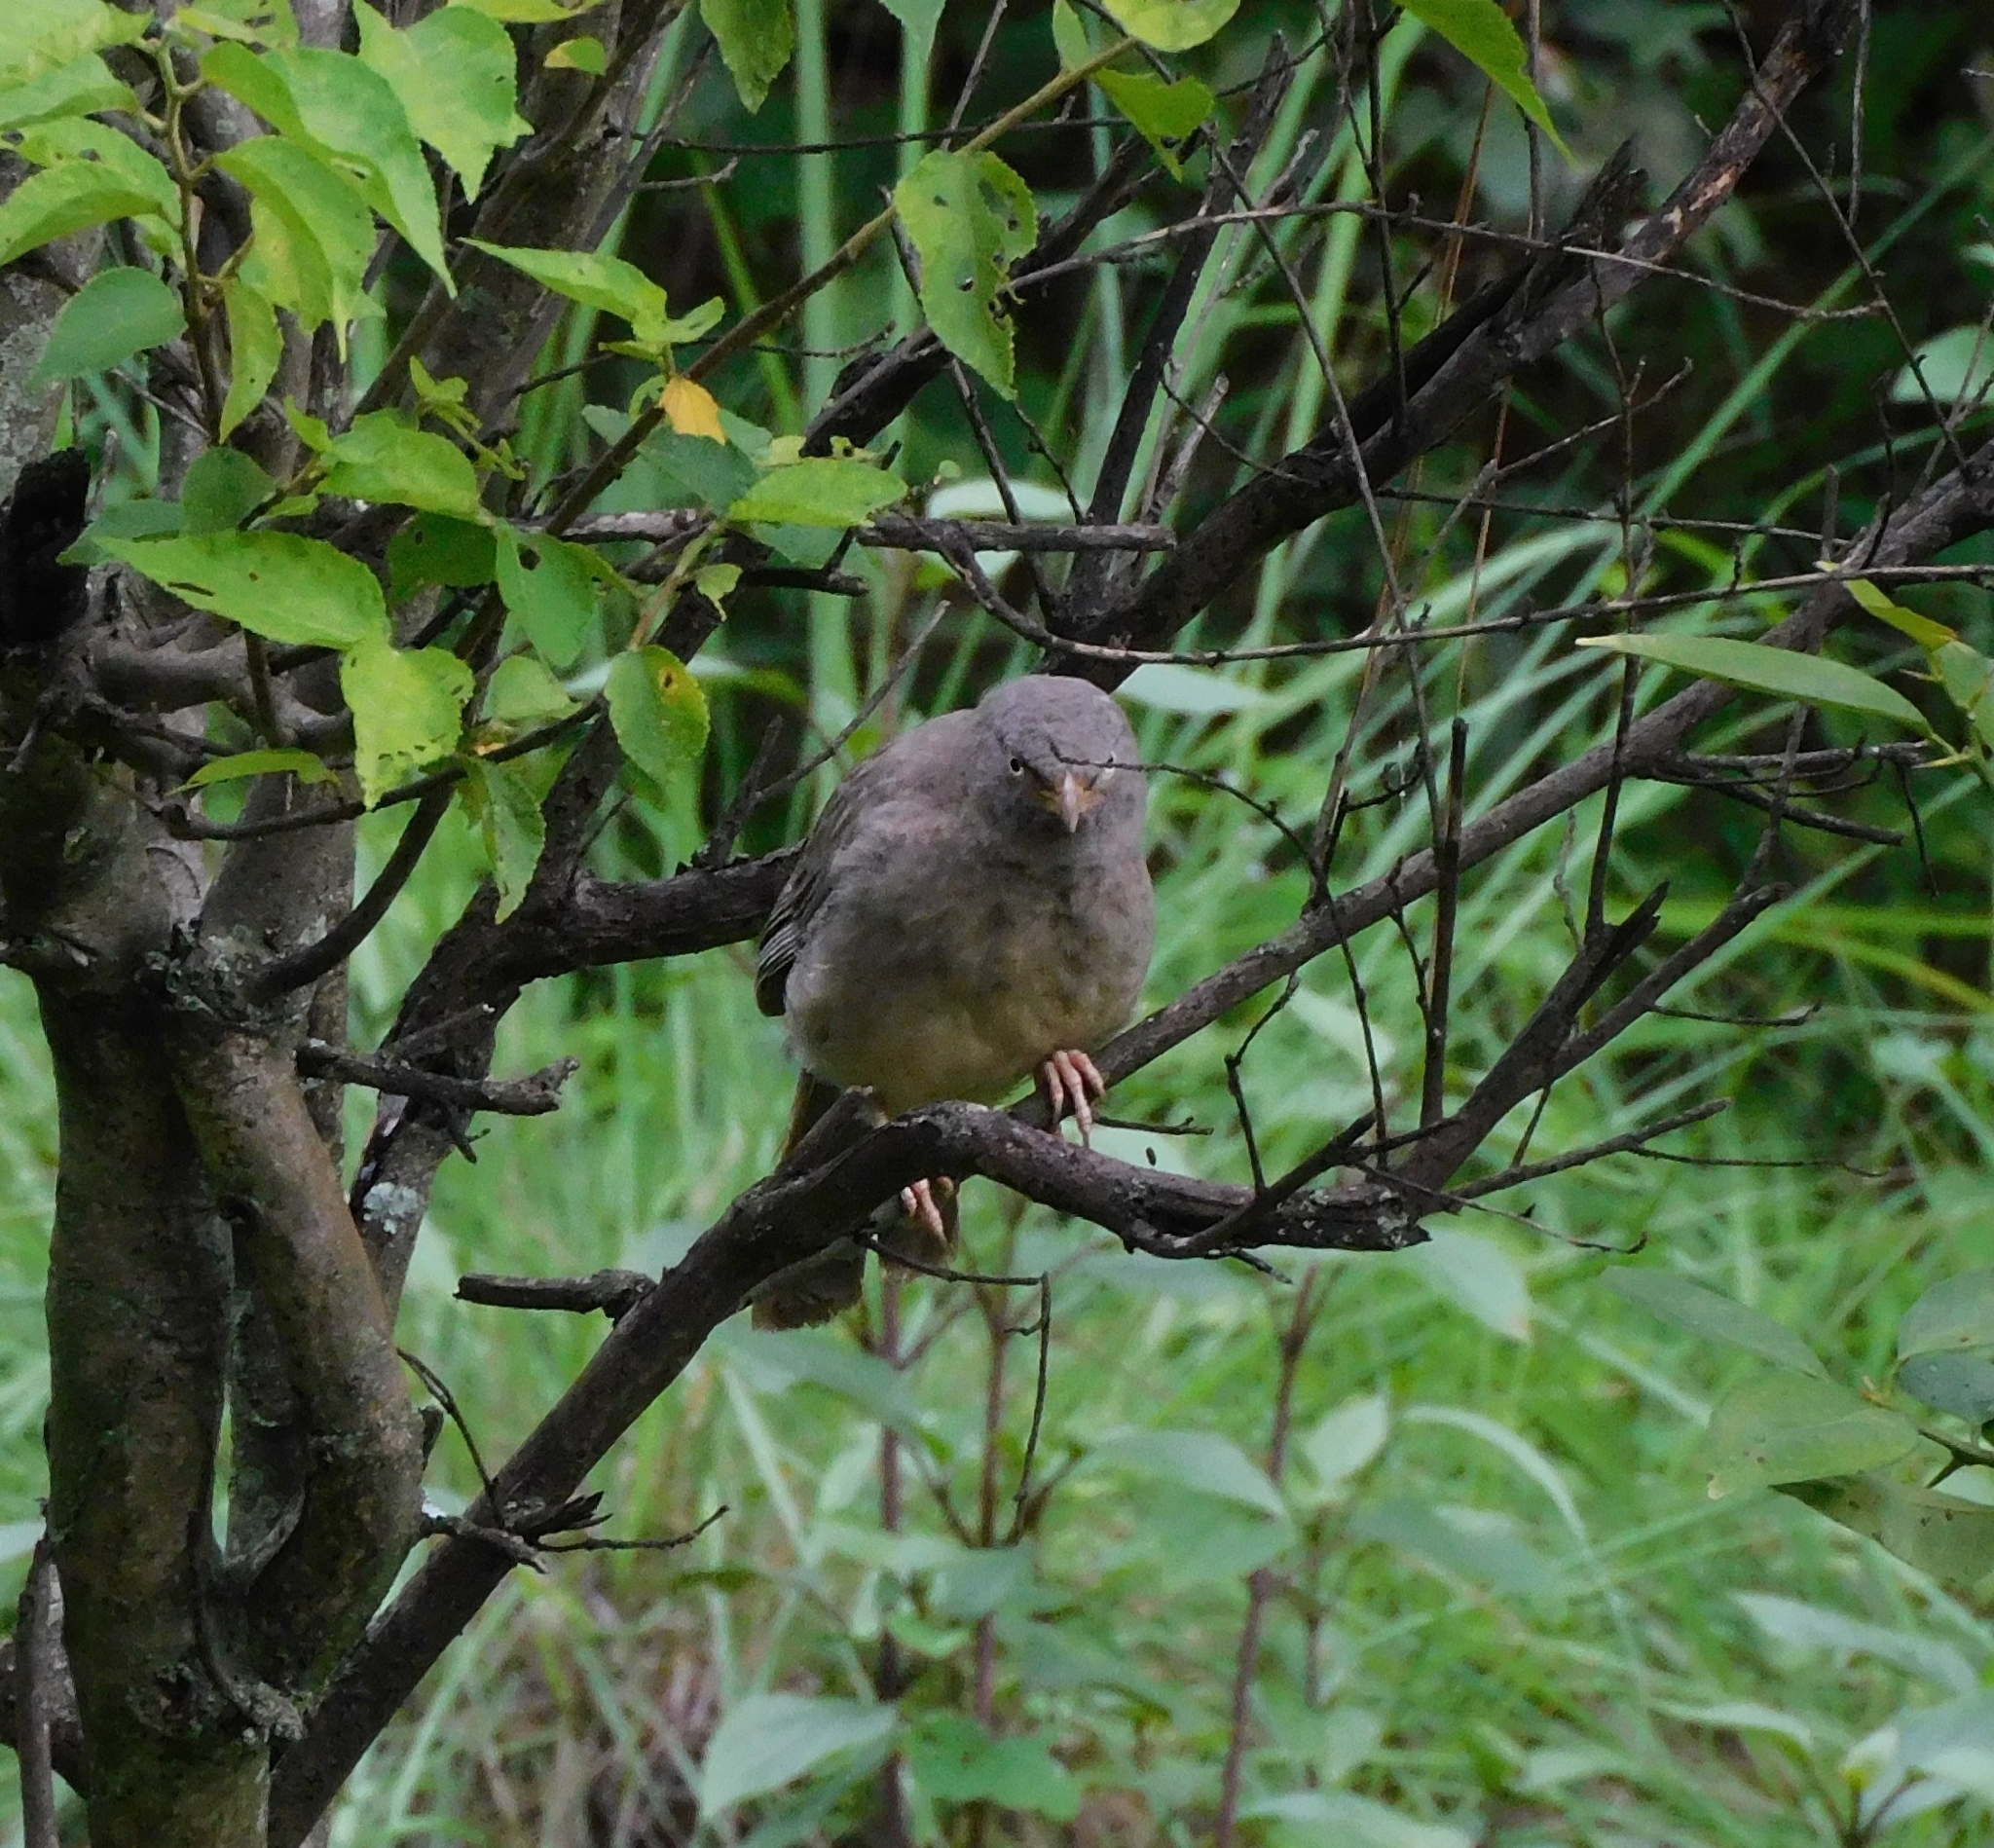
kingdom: Animalia
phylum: Chordata
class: Aves
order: Passeriformes
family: Leiothrichidae
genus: Turdoides
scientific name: Turdoides striata
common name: Jungle babbler
